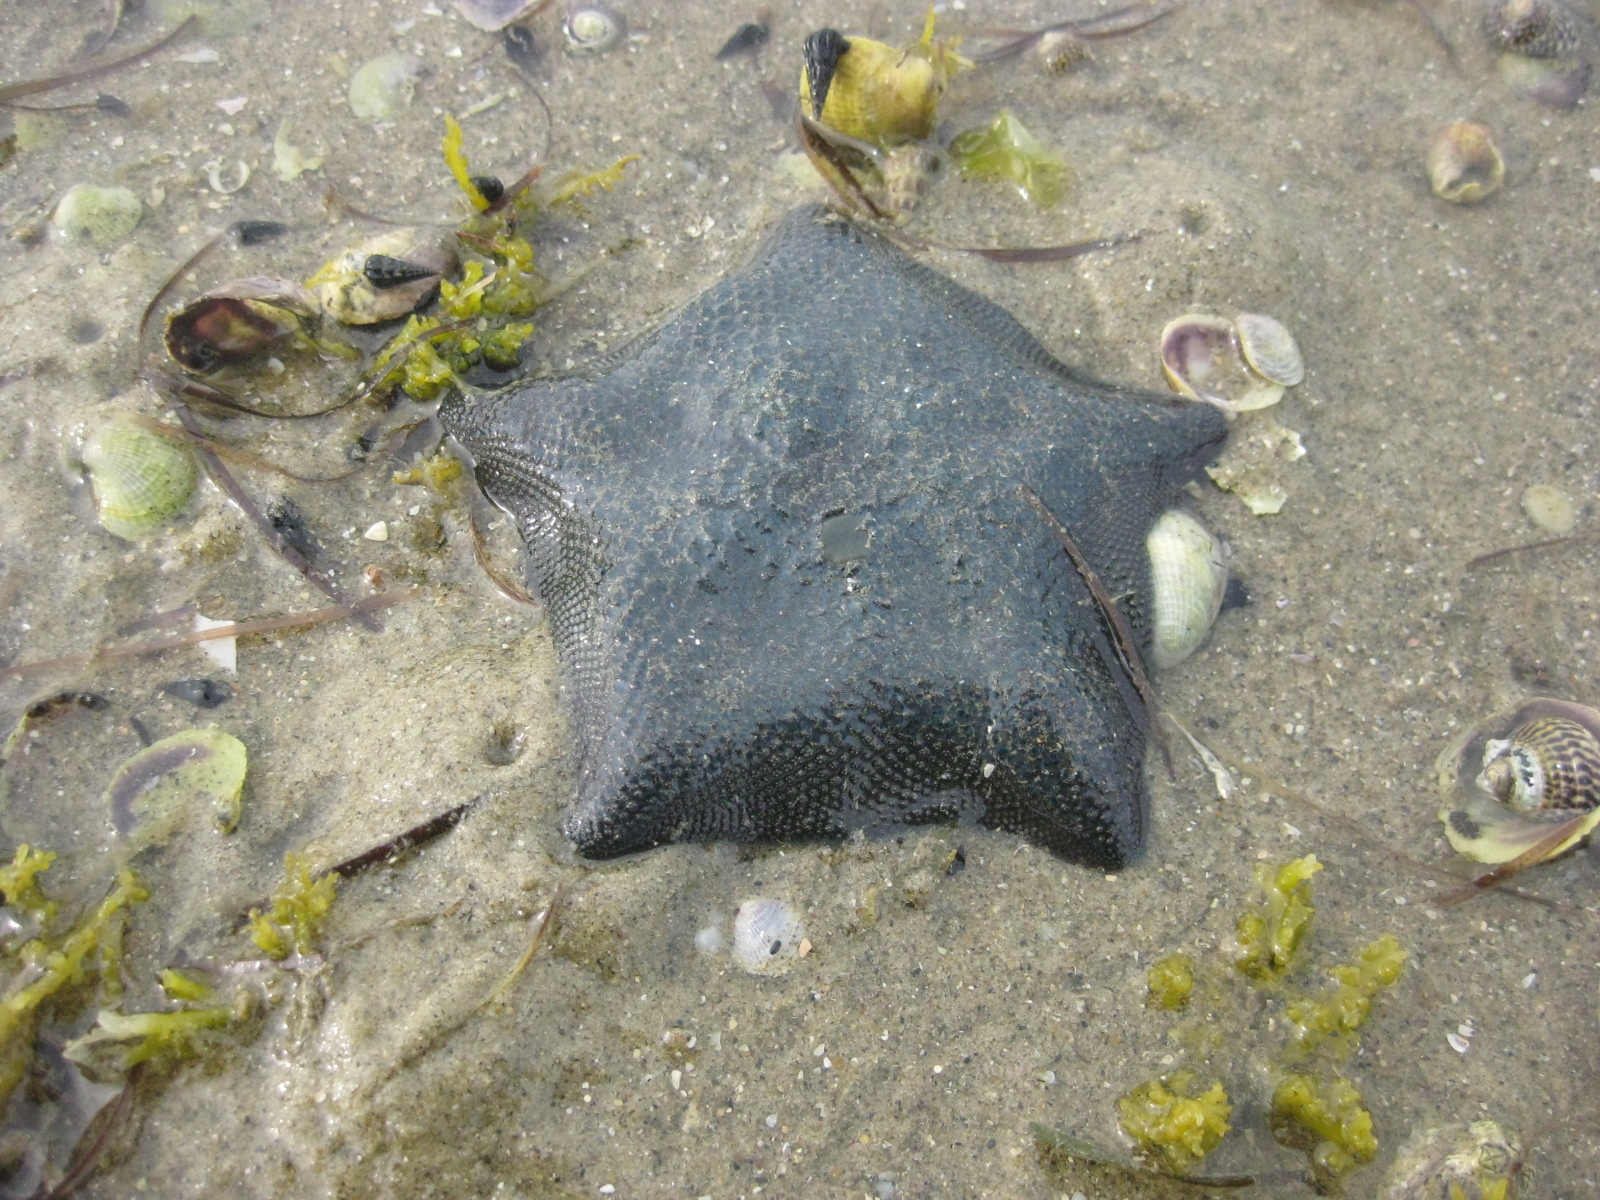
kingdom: Animalia
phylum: Echinodermata
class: Asteroidea
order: Valvatida
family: Asterinidae
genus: Patiriella
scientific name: Patiriella regularis
